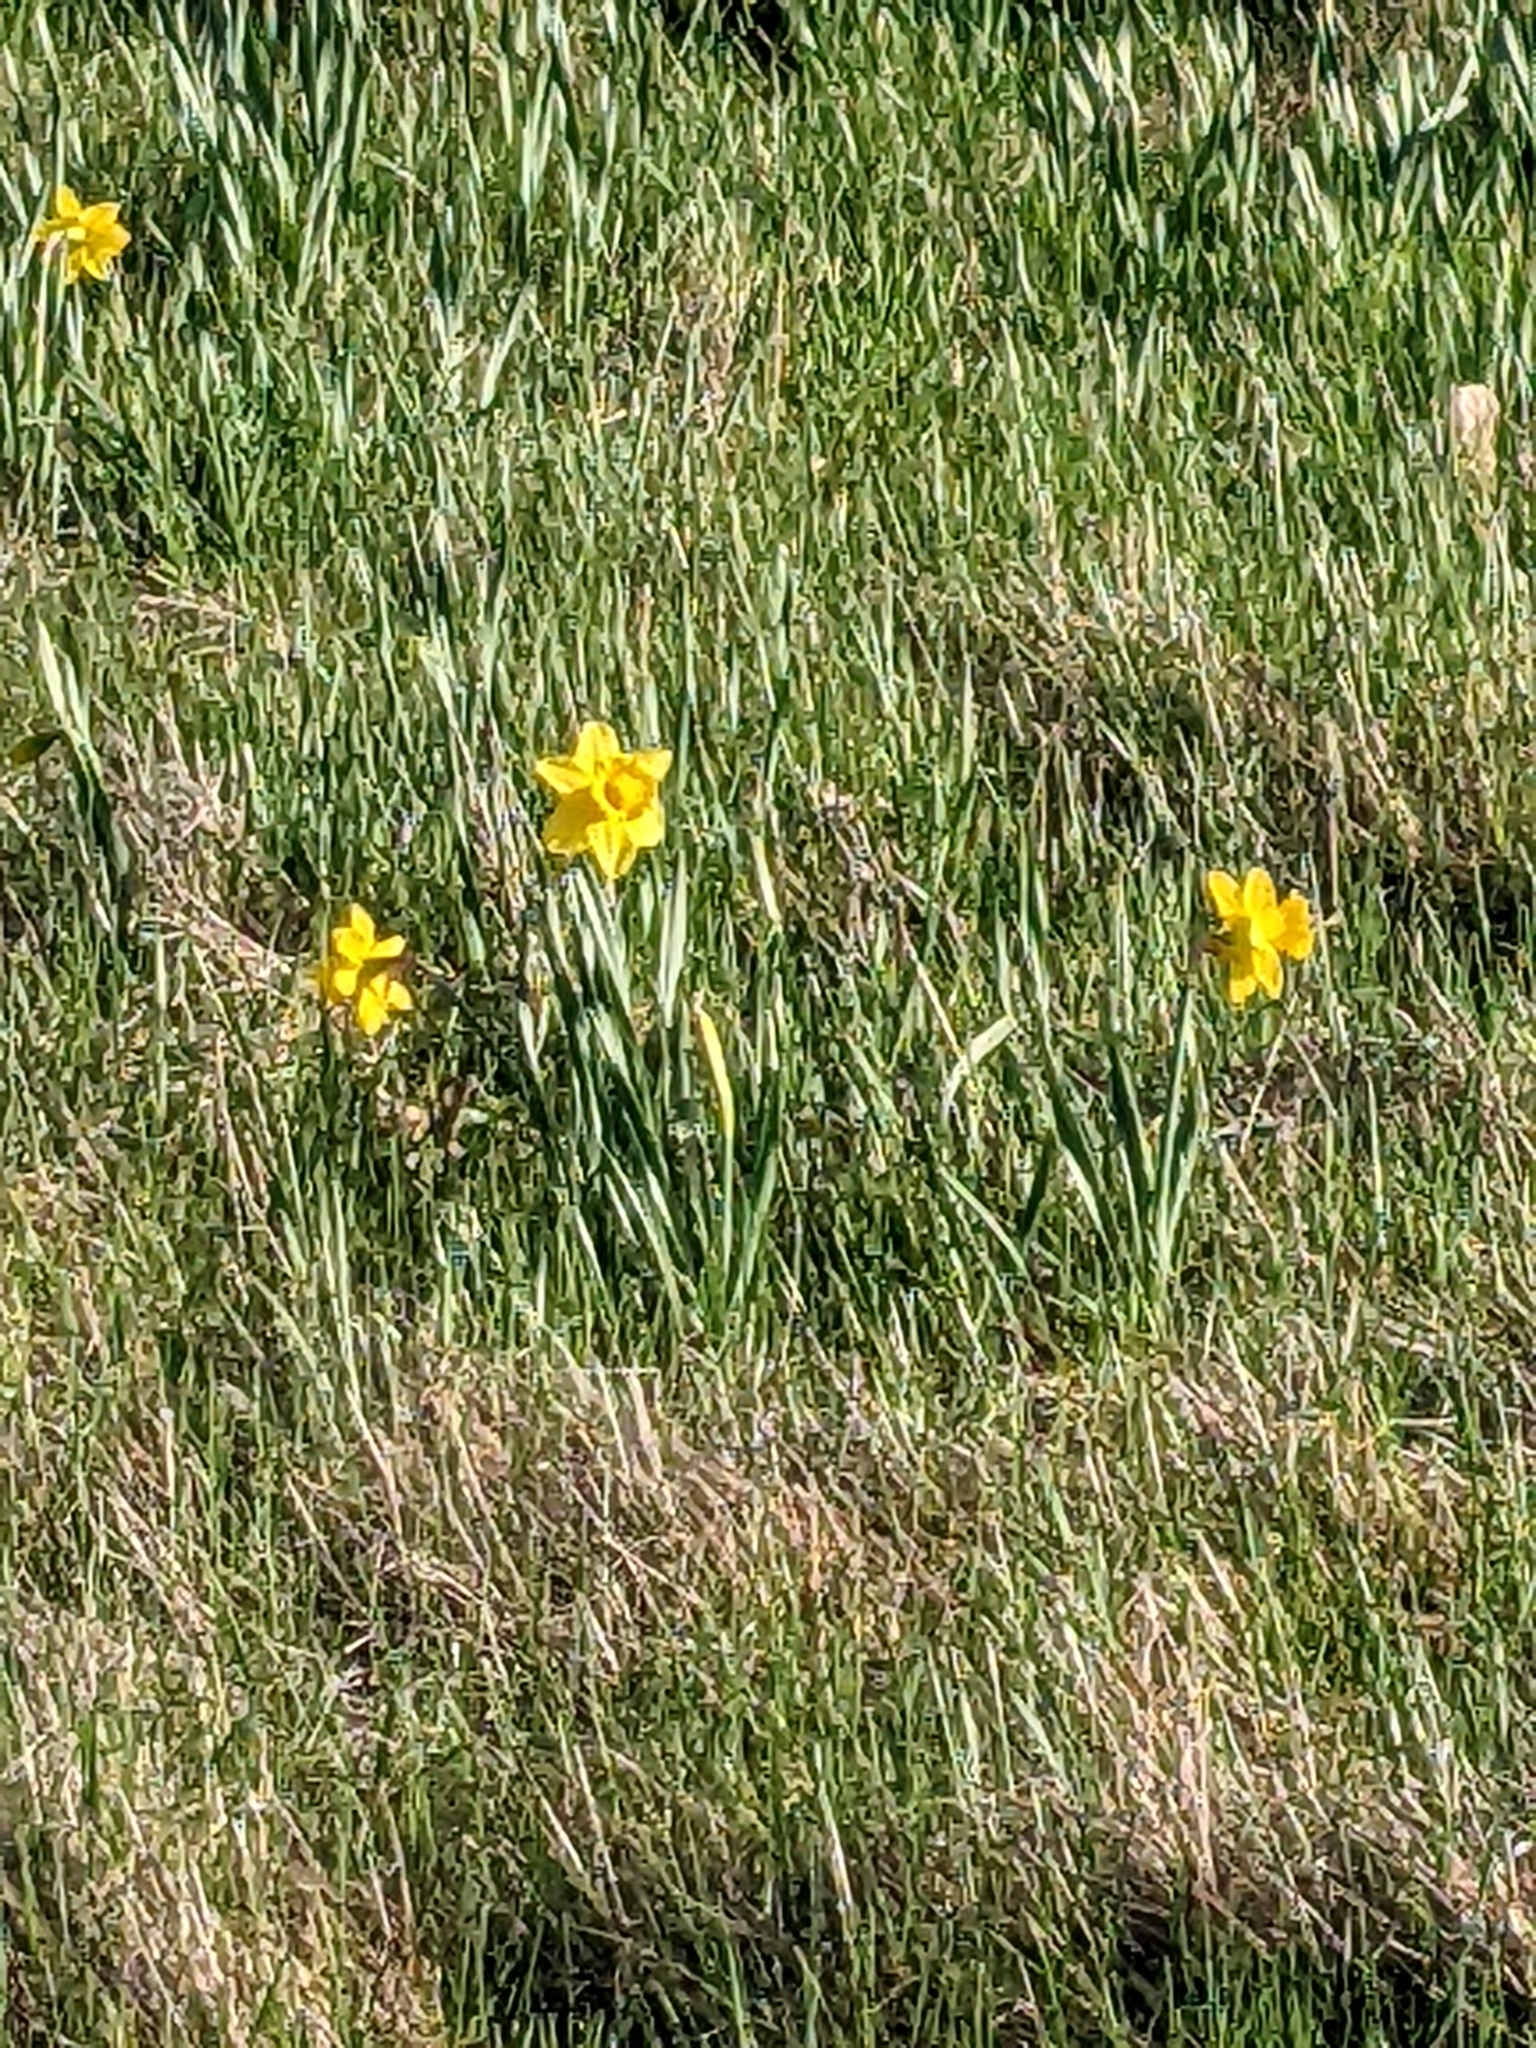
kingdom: Plantae
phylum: Tracheophyta
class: Liliopsida
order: Asparagales
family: Amaryllidaceae
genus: Narcissus
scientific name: Narcissus pseudonarcissus
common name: Daffodil
